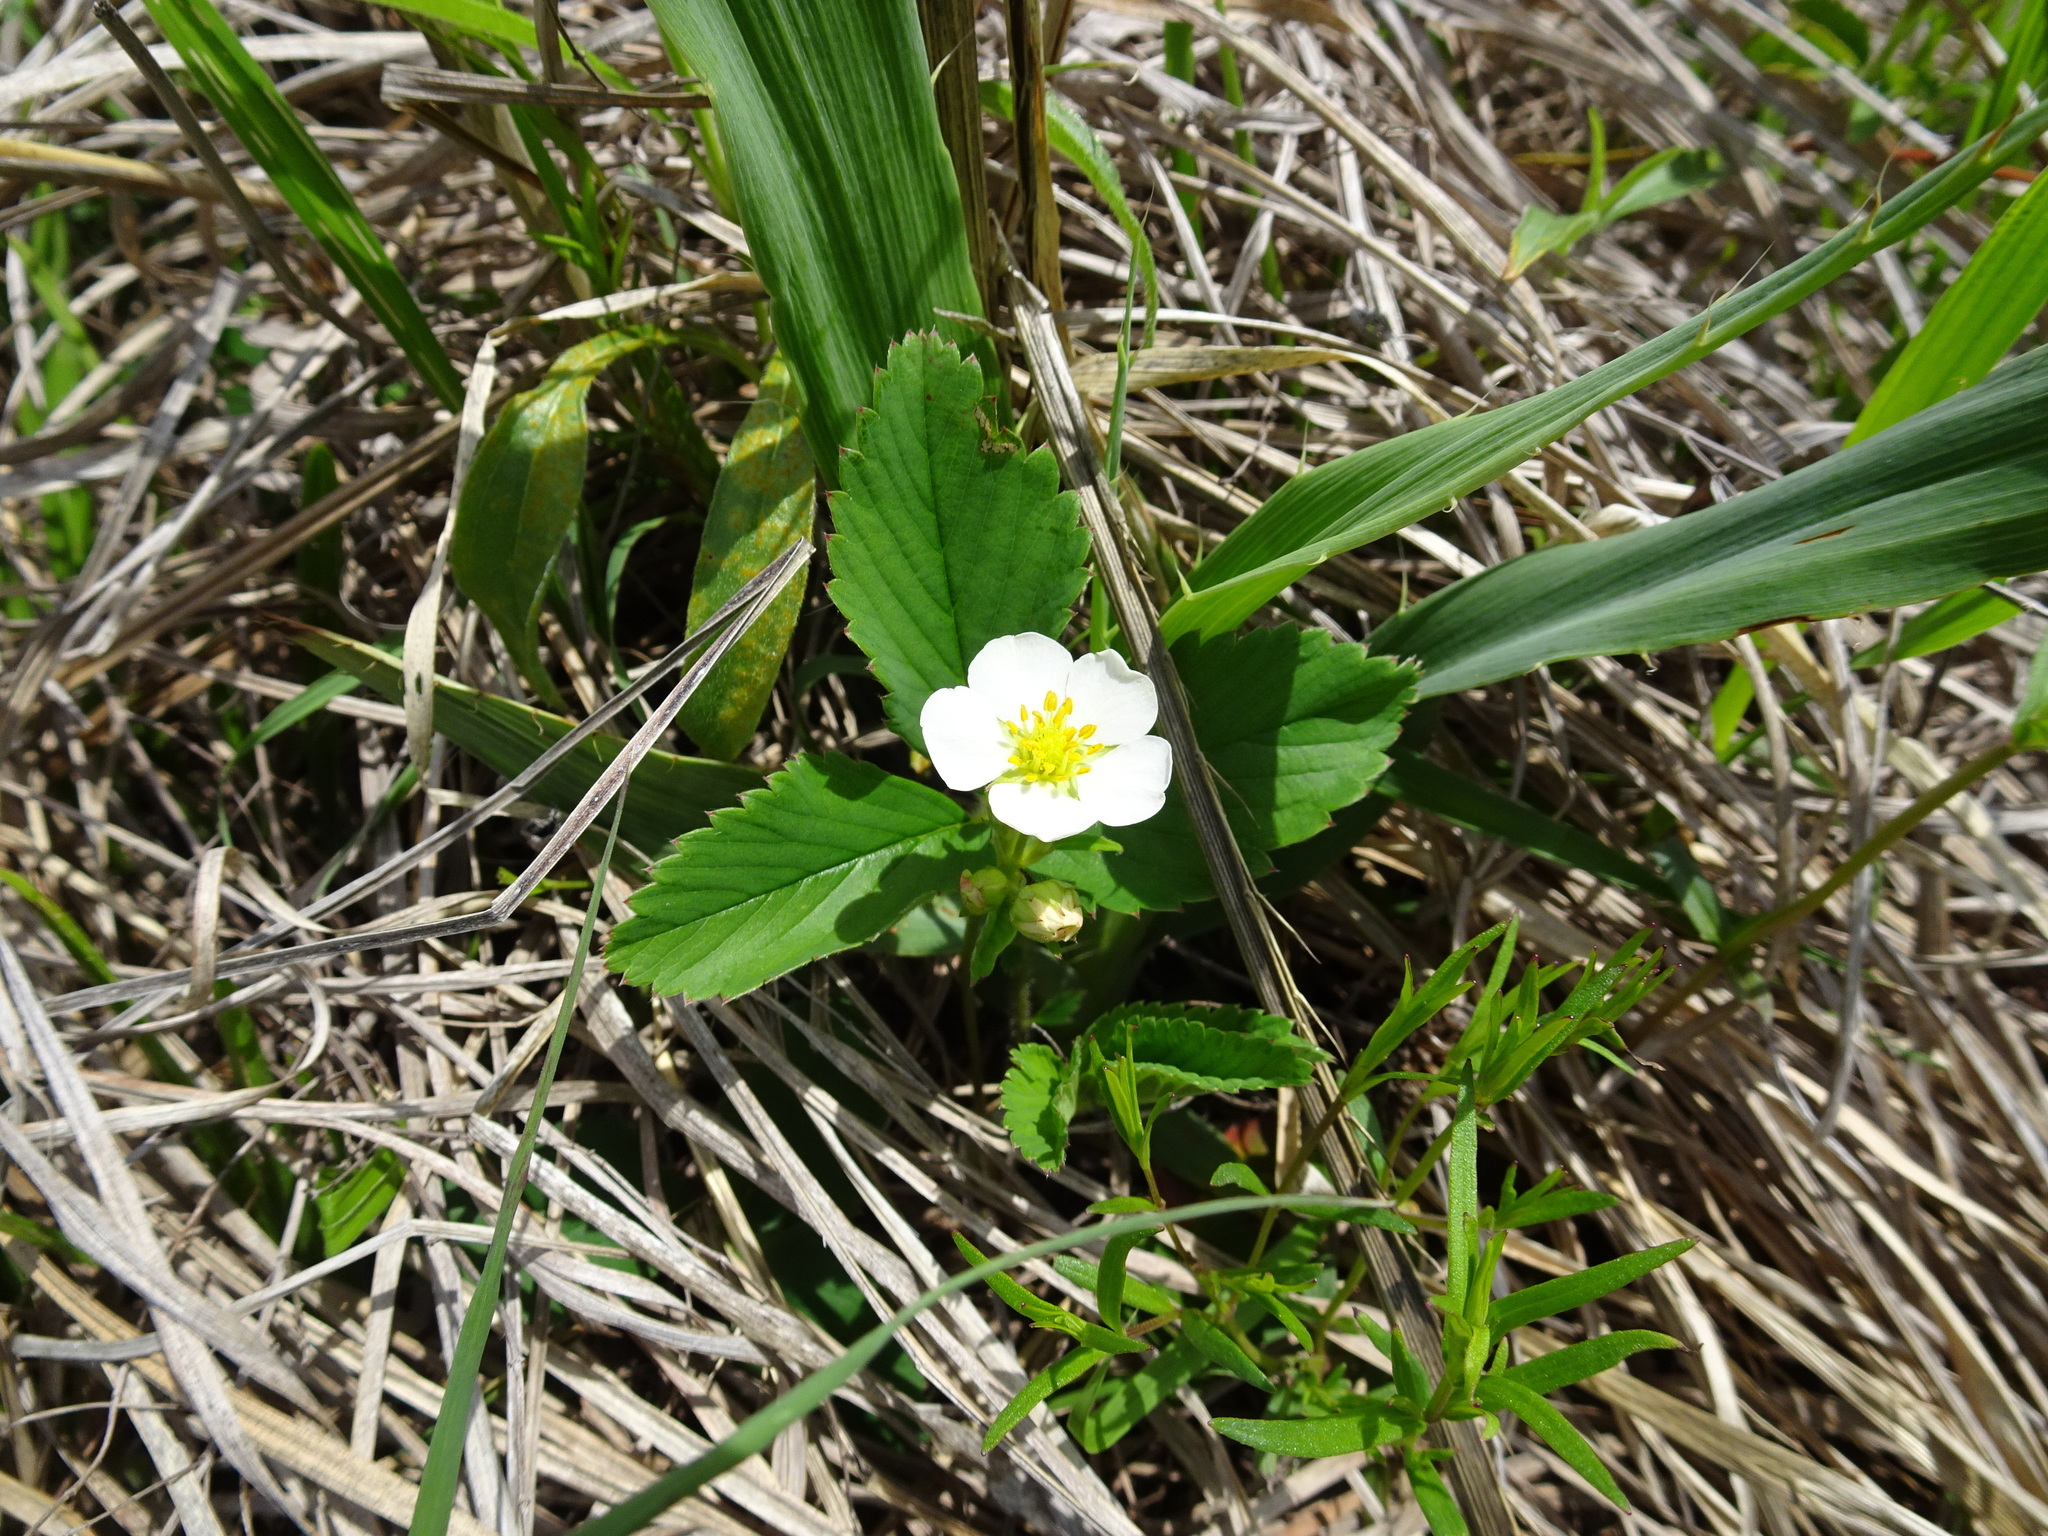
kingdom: Plantae
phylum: Tracheophyta
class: Magnoliopsida
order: Rosales
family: Rosaceae
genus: Fragaria
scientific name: Fragaria virginiana
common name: Thickleaved wild strawberry
